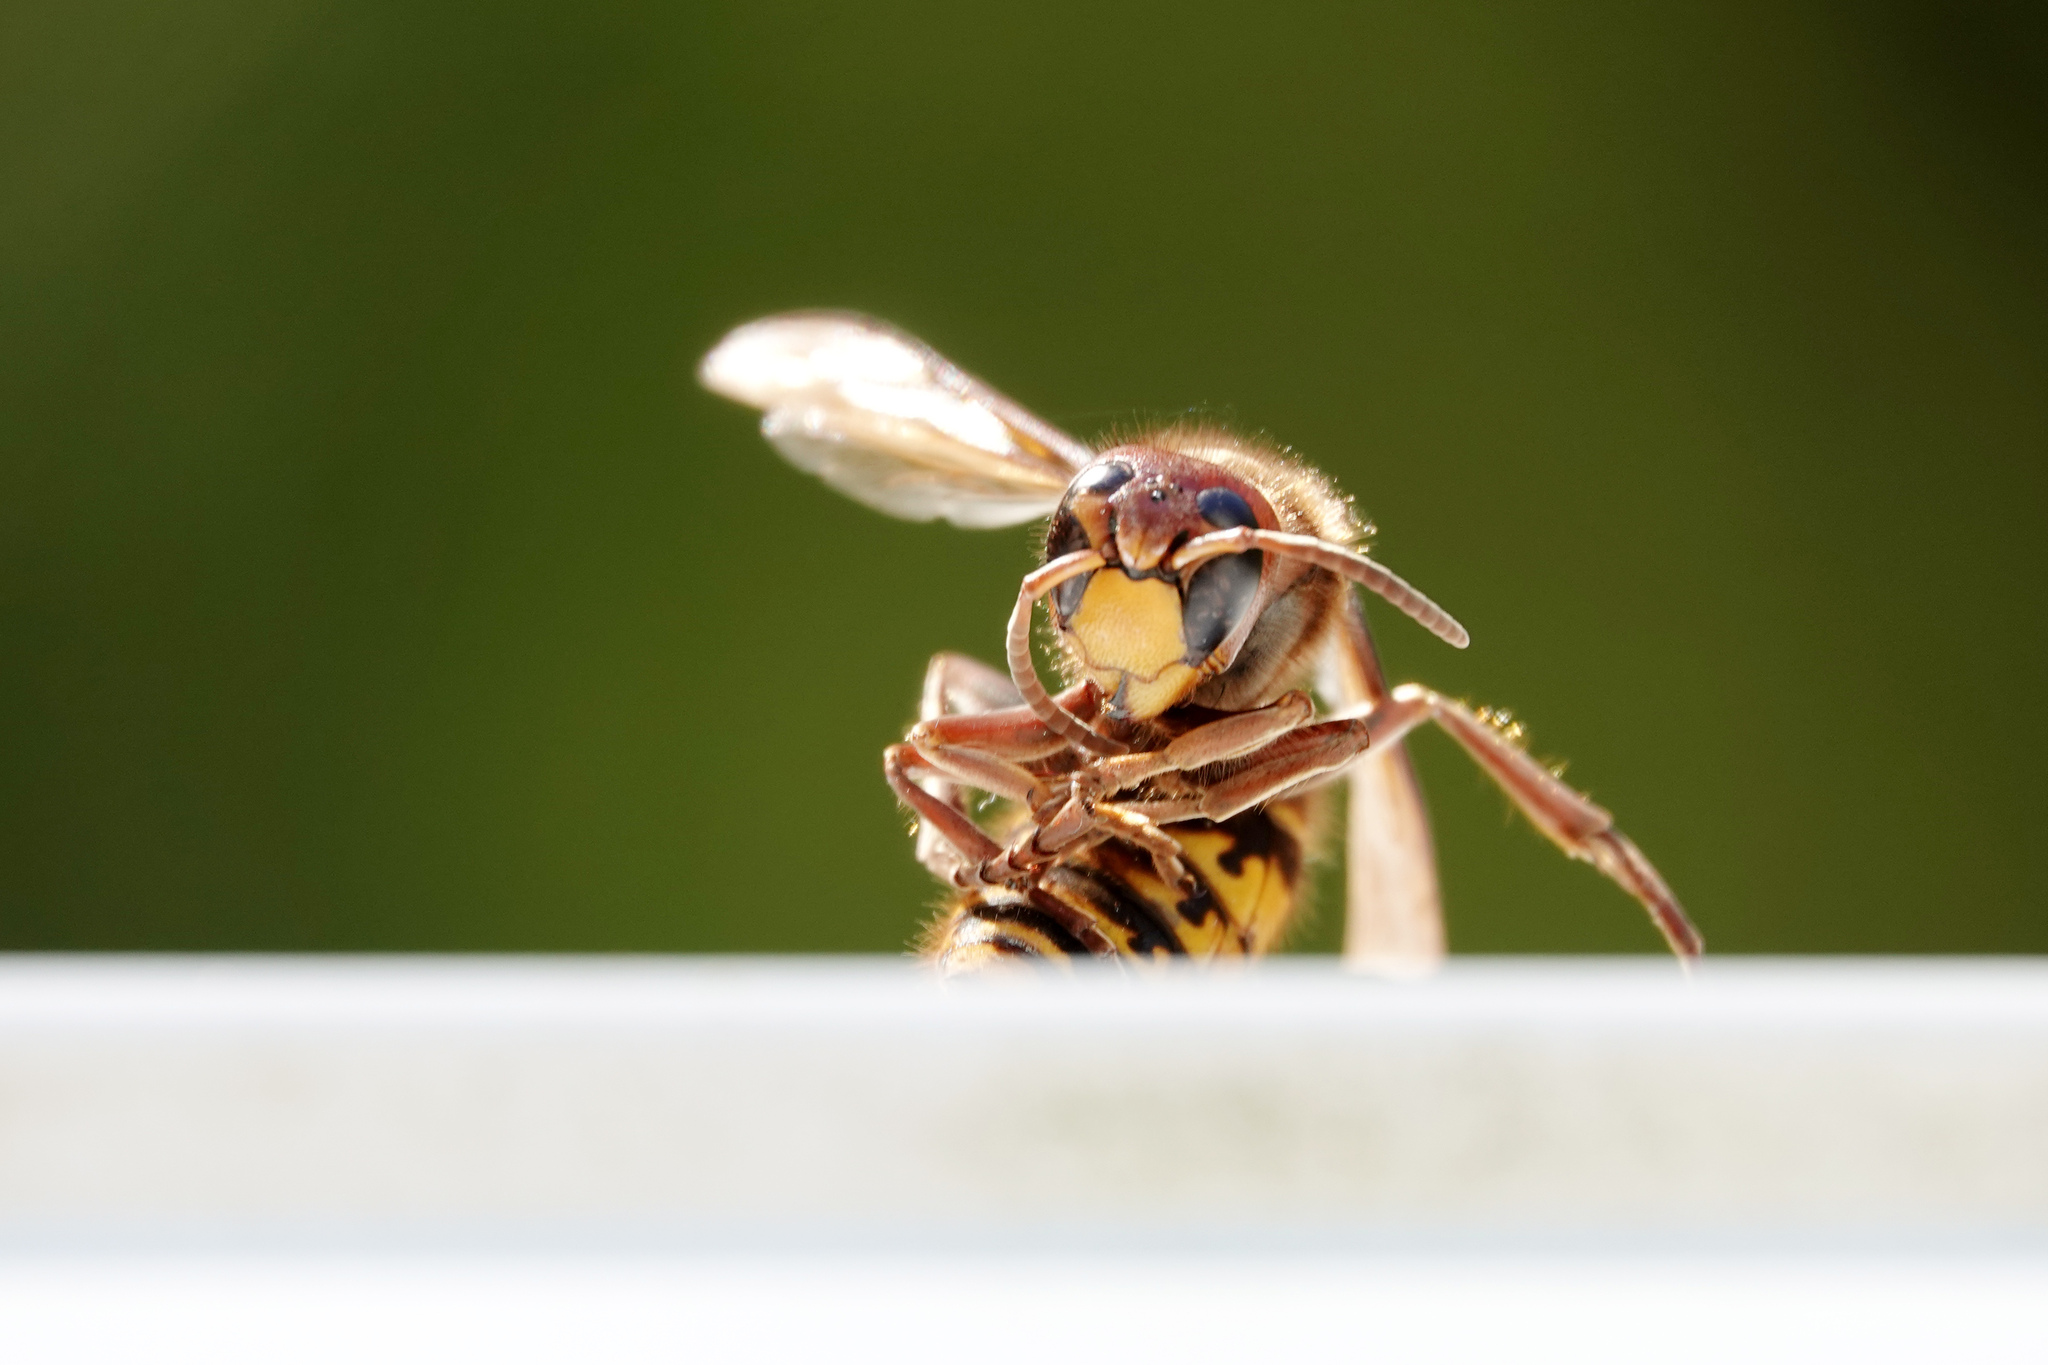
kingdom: Animalia
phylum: Arthropoda
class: Insecta
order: Hymenoptera
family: Vespidae
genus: Vespa
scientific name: Vespa crabro
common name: Hornet
